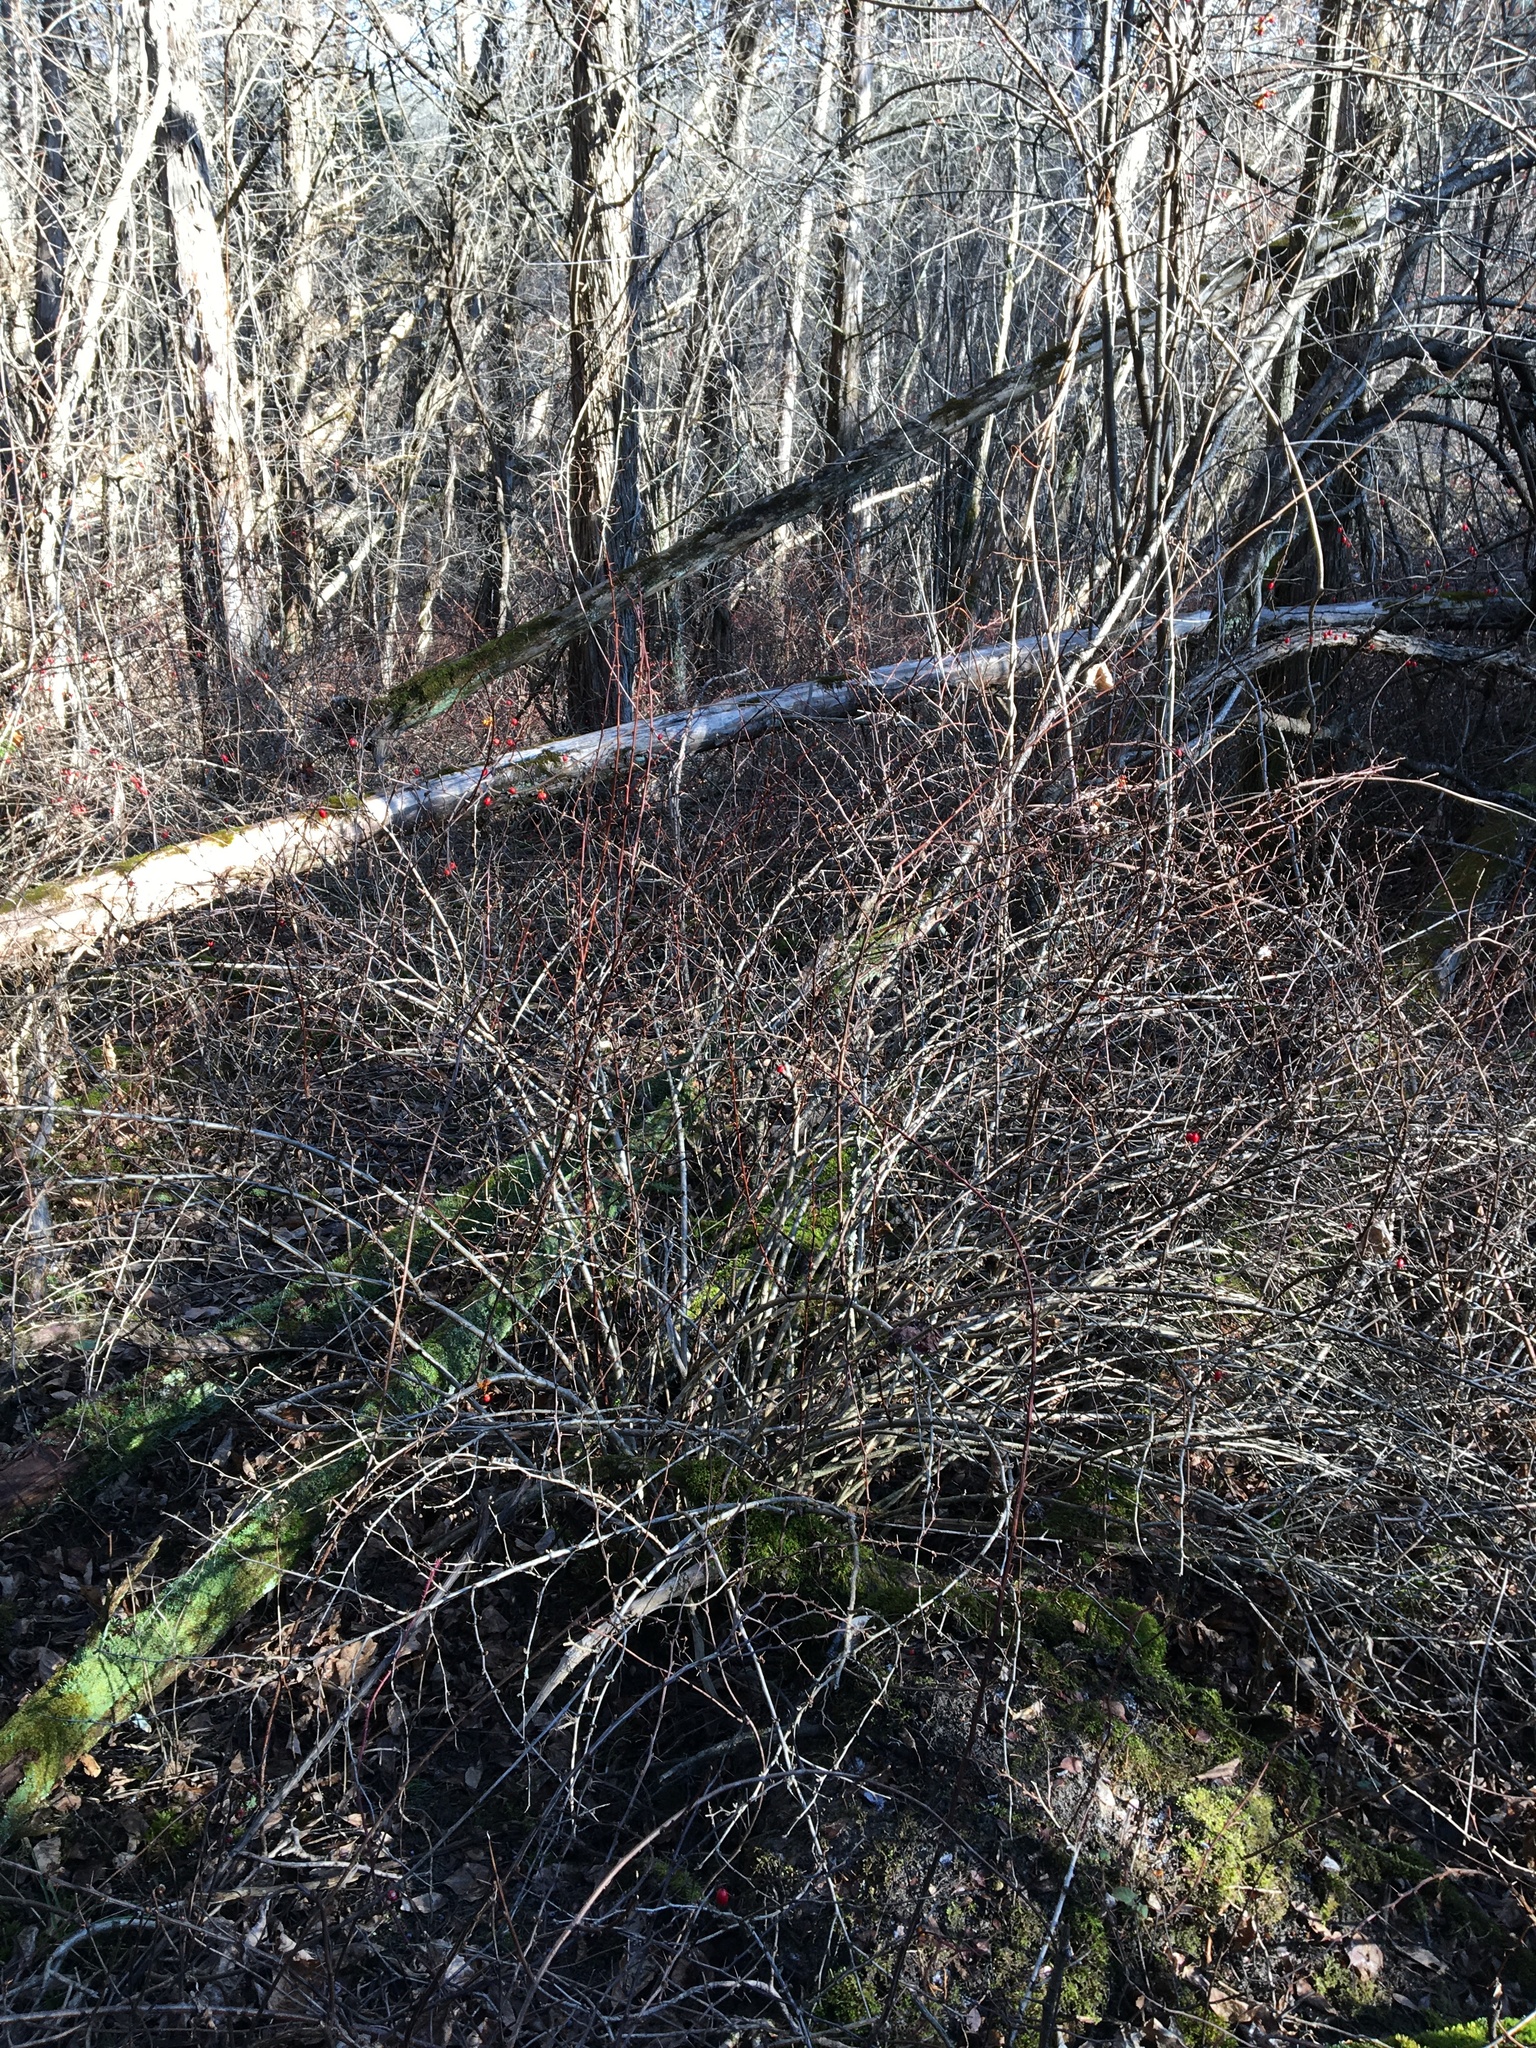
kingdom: Plantae
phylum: Tracheophyta
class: Magnoliopsida
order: Ranunculales
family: Berberidaceae
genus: Berberis
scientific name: Berberis thunbergii
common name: Japanese barberry
